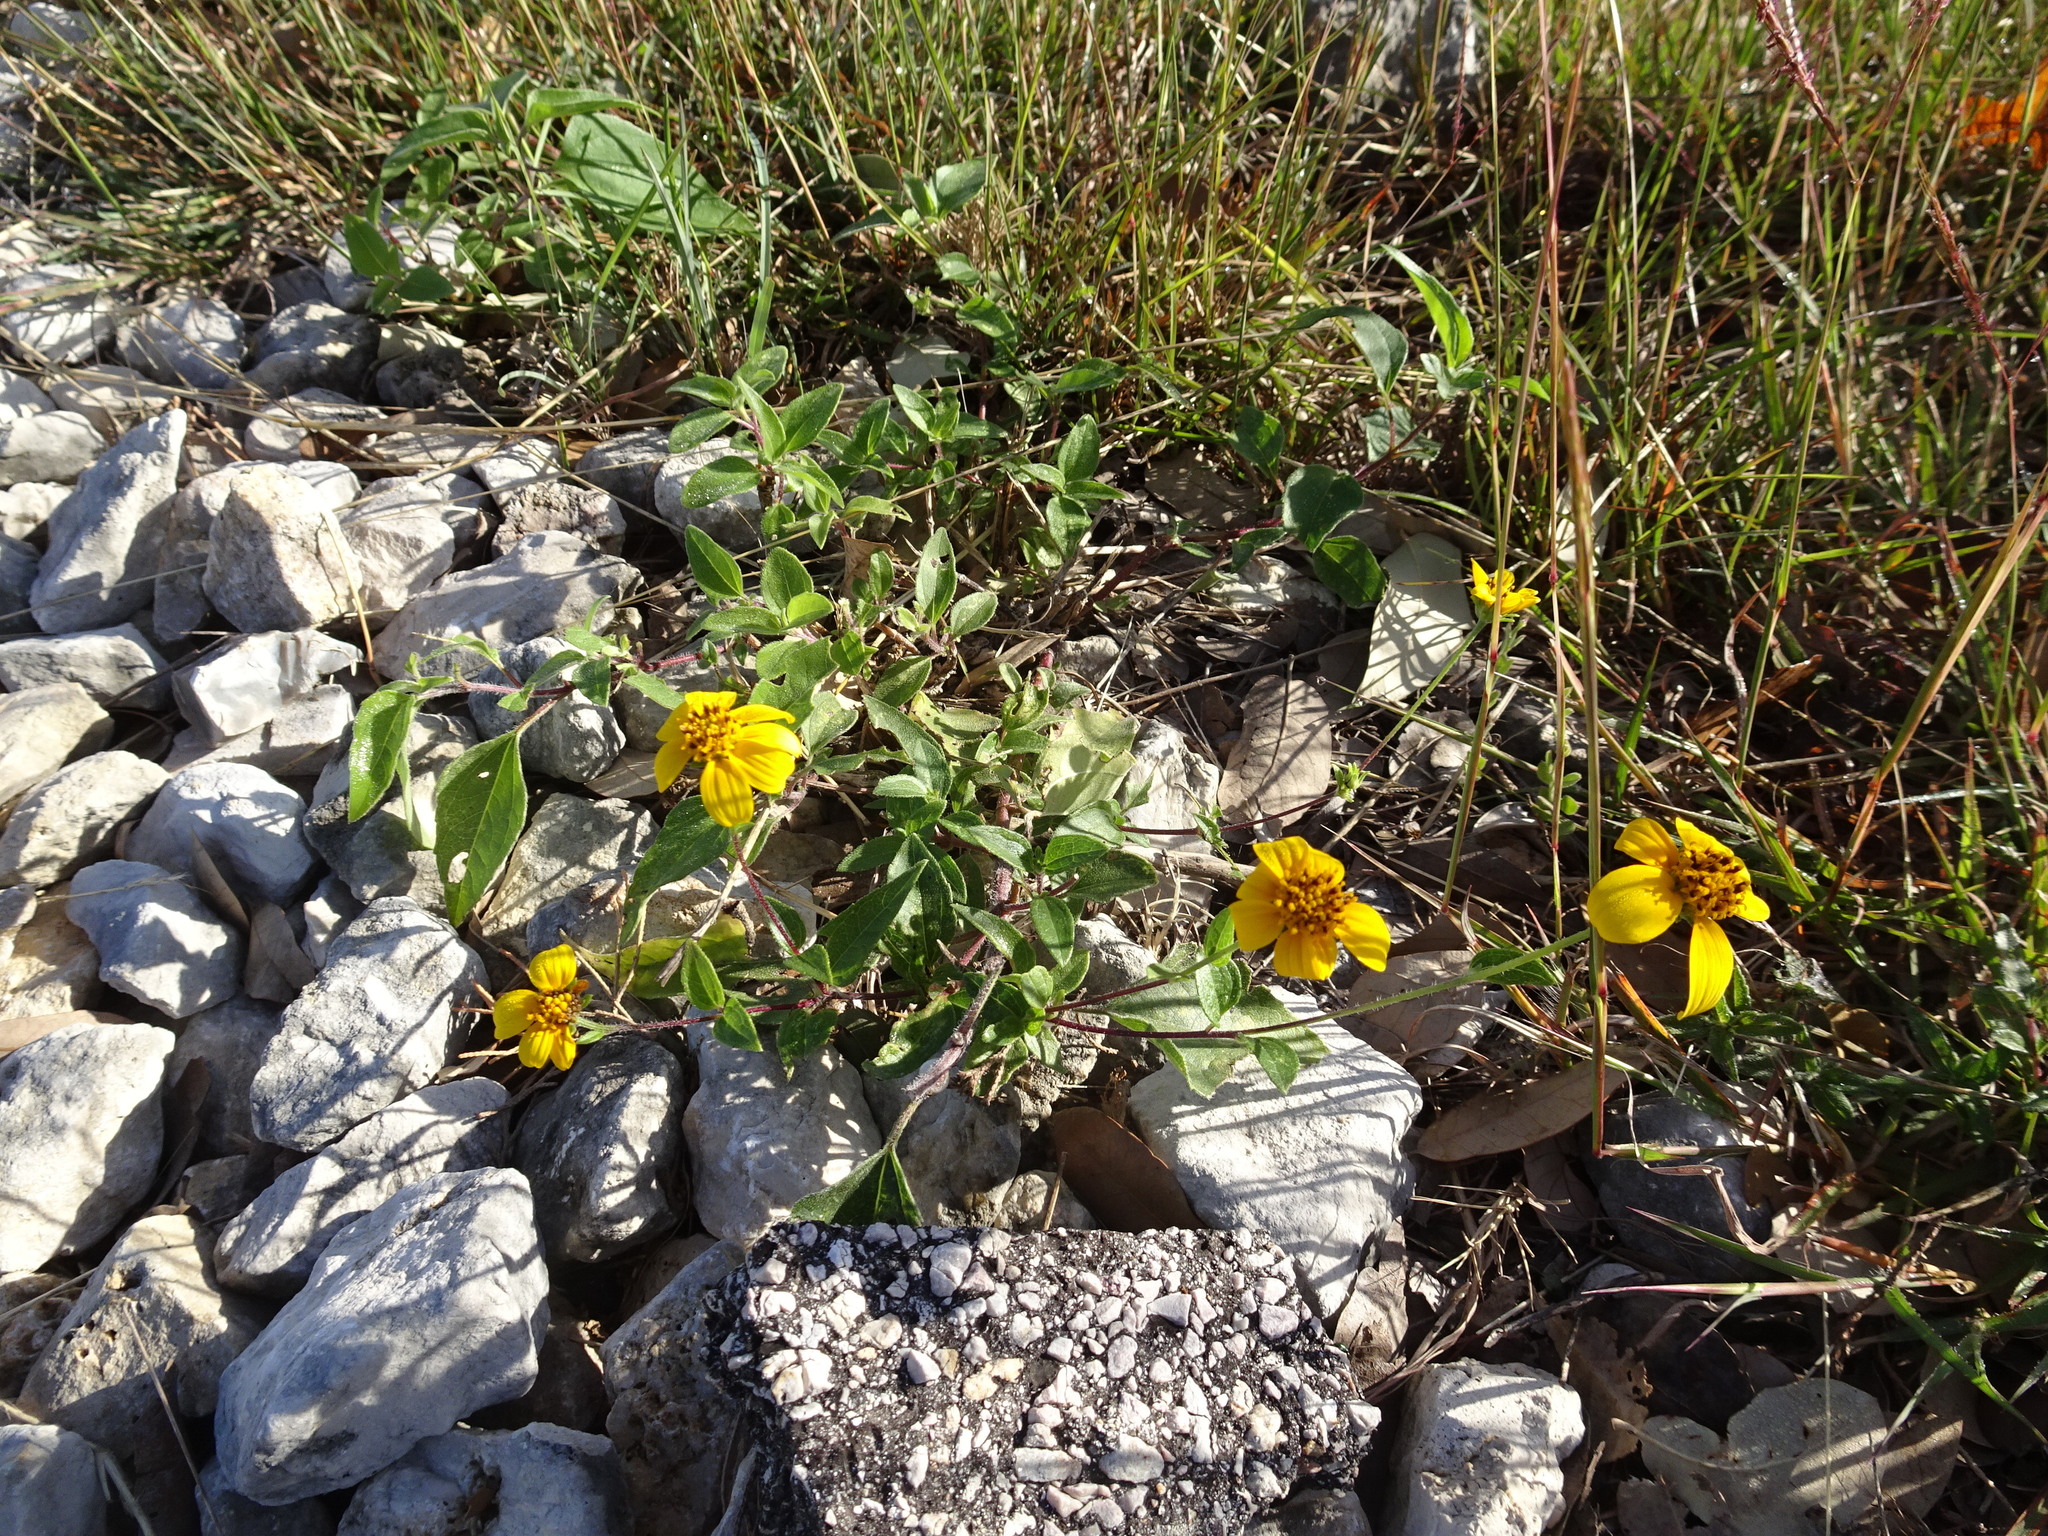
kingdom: Plantae
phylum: Tracheophyta
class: Magnoliopsida
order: Asterales
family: Asteraceae
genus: Viguiera
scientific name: Viguiera dentata
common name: Toothleaf
